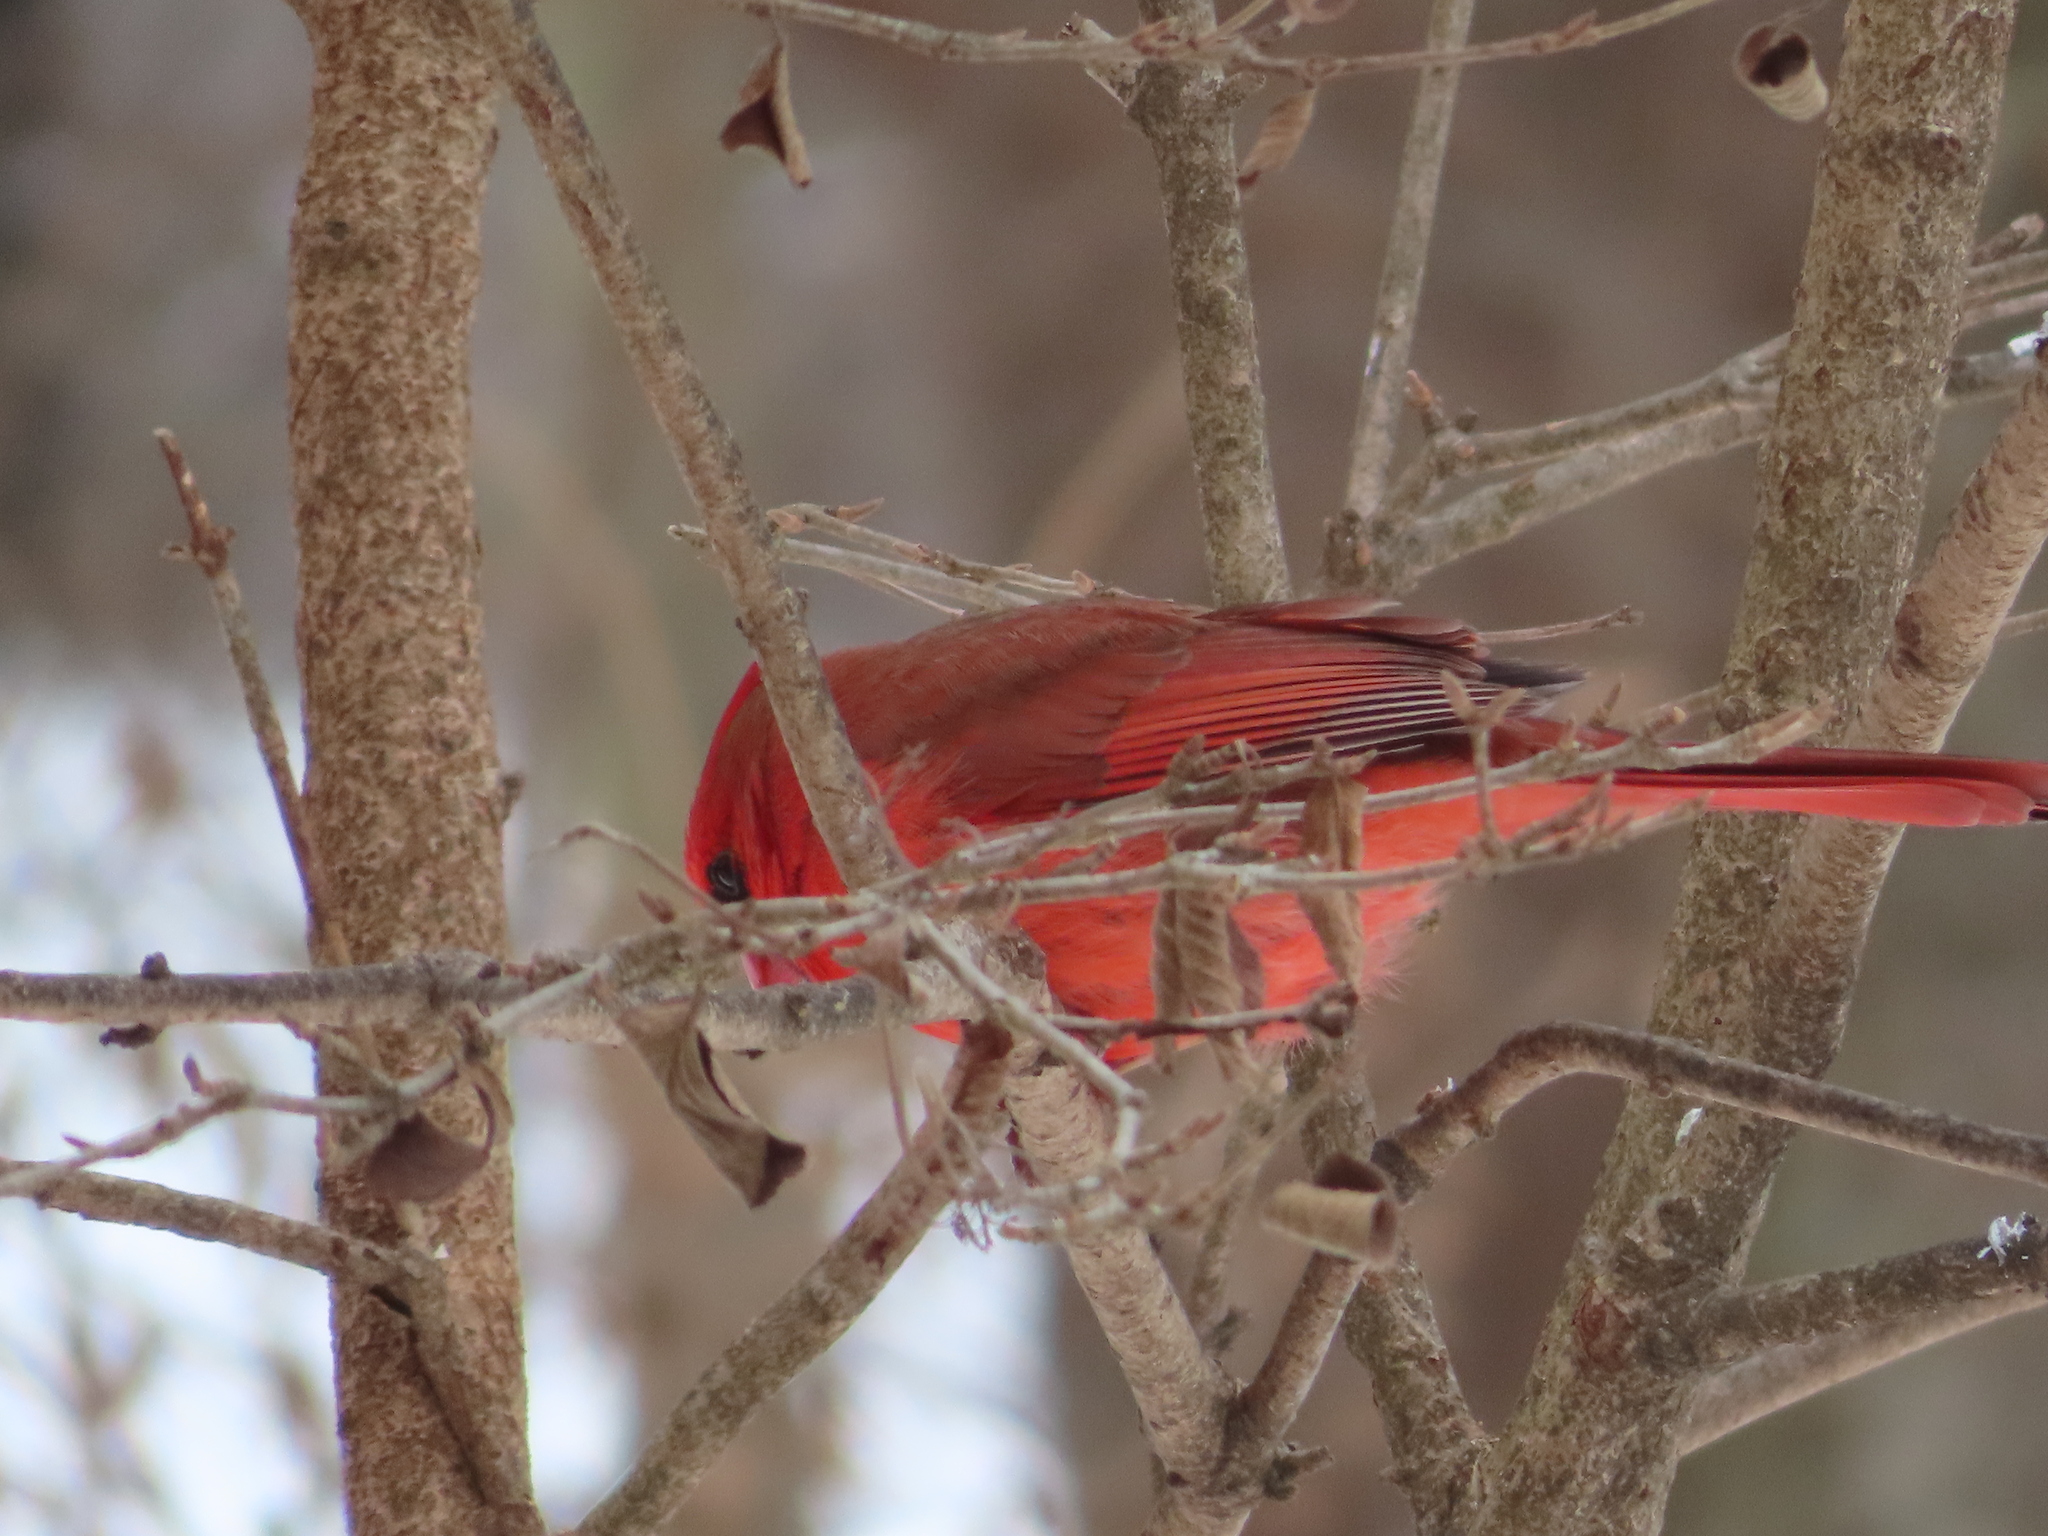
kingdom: Animalia
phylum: Chordata
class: Aves
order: Passeriformes
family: Cardinalidae
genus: Cardinalis
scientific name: Cardinalis cardinalis
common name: Northern cardinal
